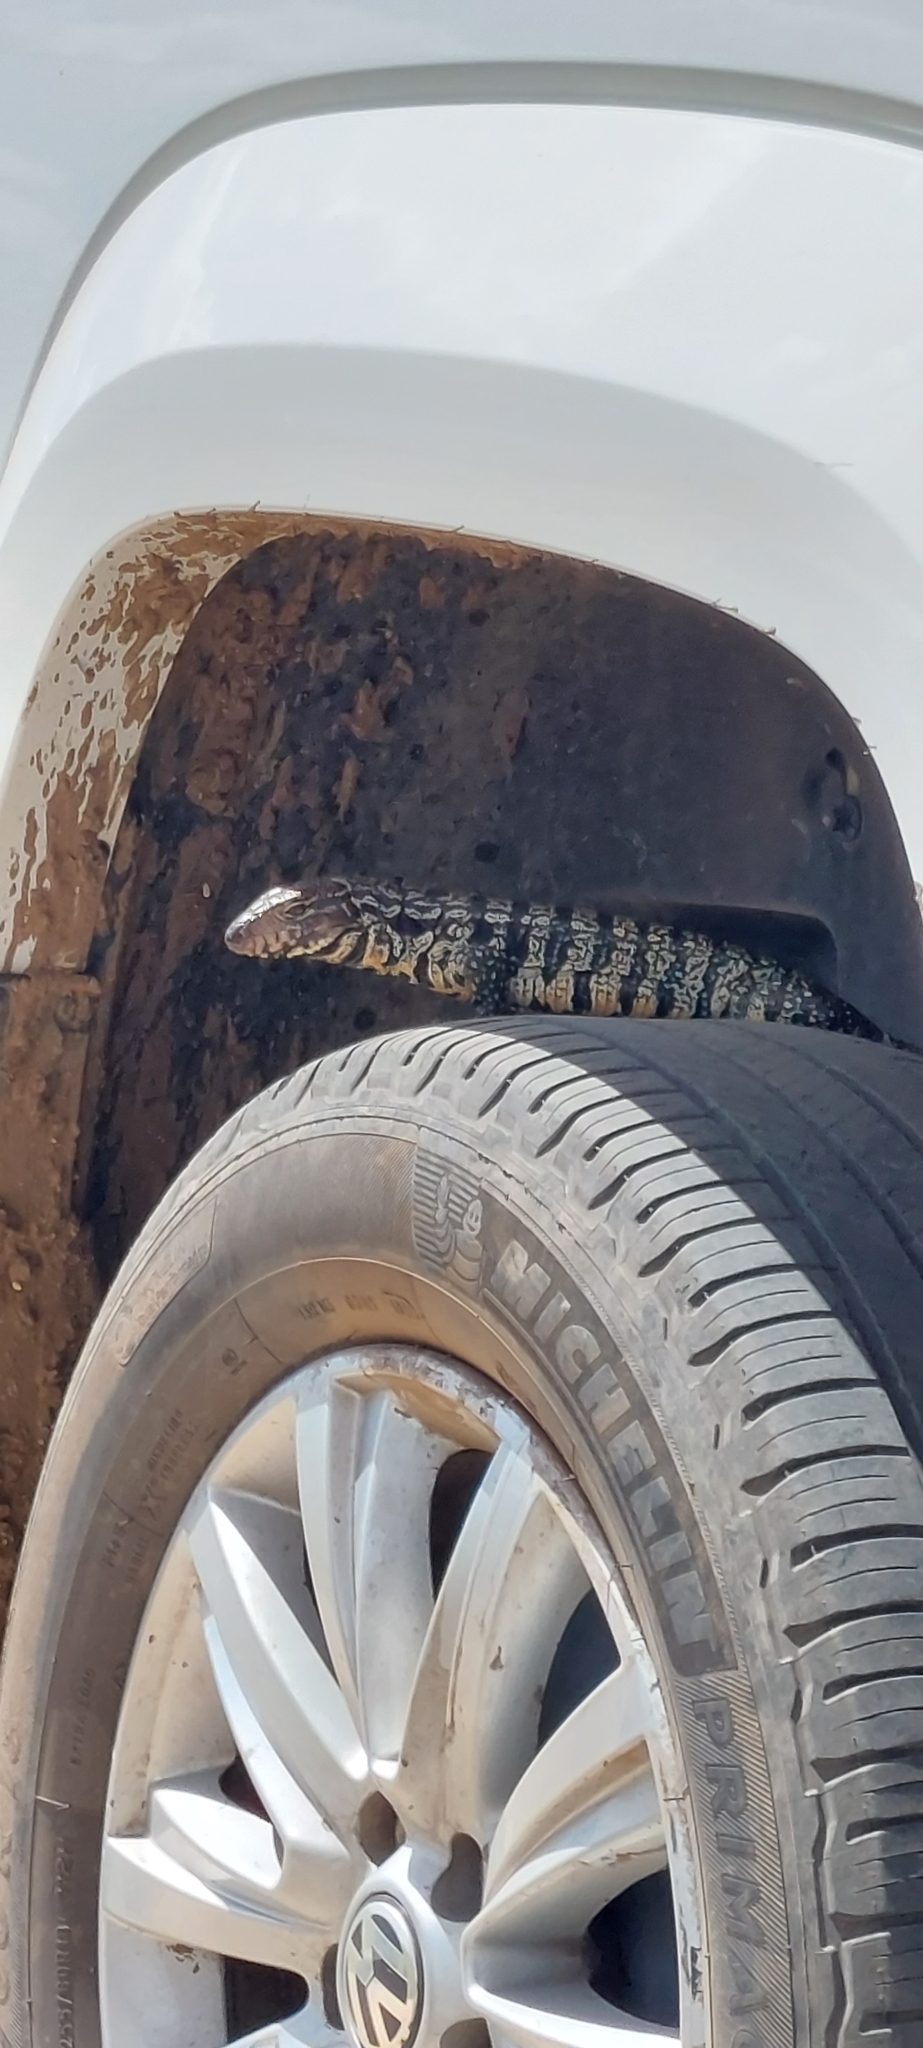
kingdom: Animalia
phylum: Chordata
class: Squamata
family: Teiidae
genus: Salvator
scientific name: Salvator merianae
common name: Argentine black and white tegu
